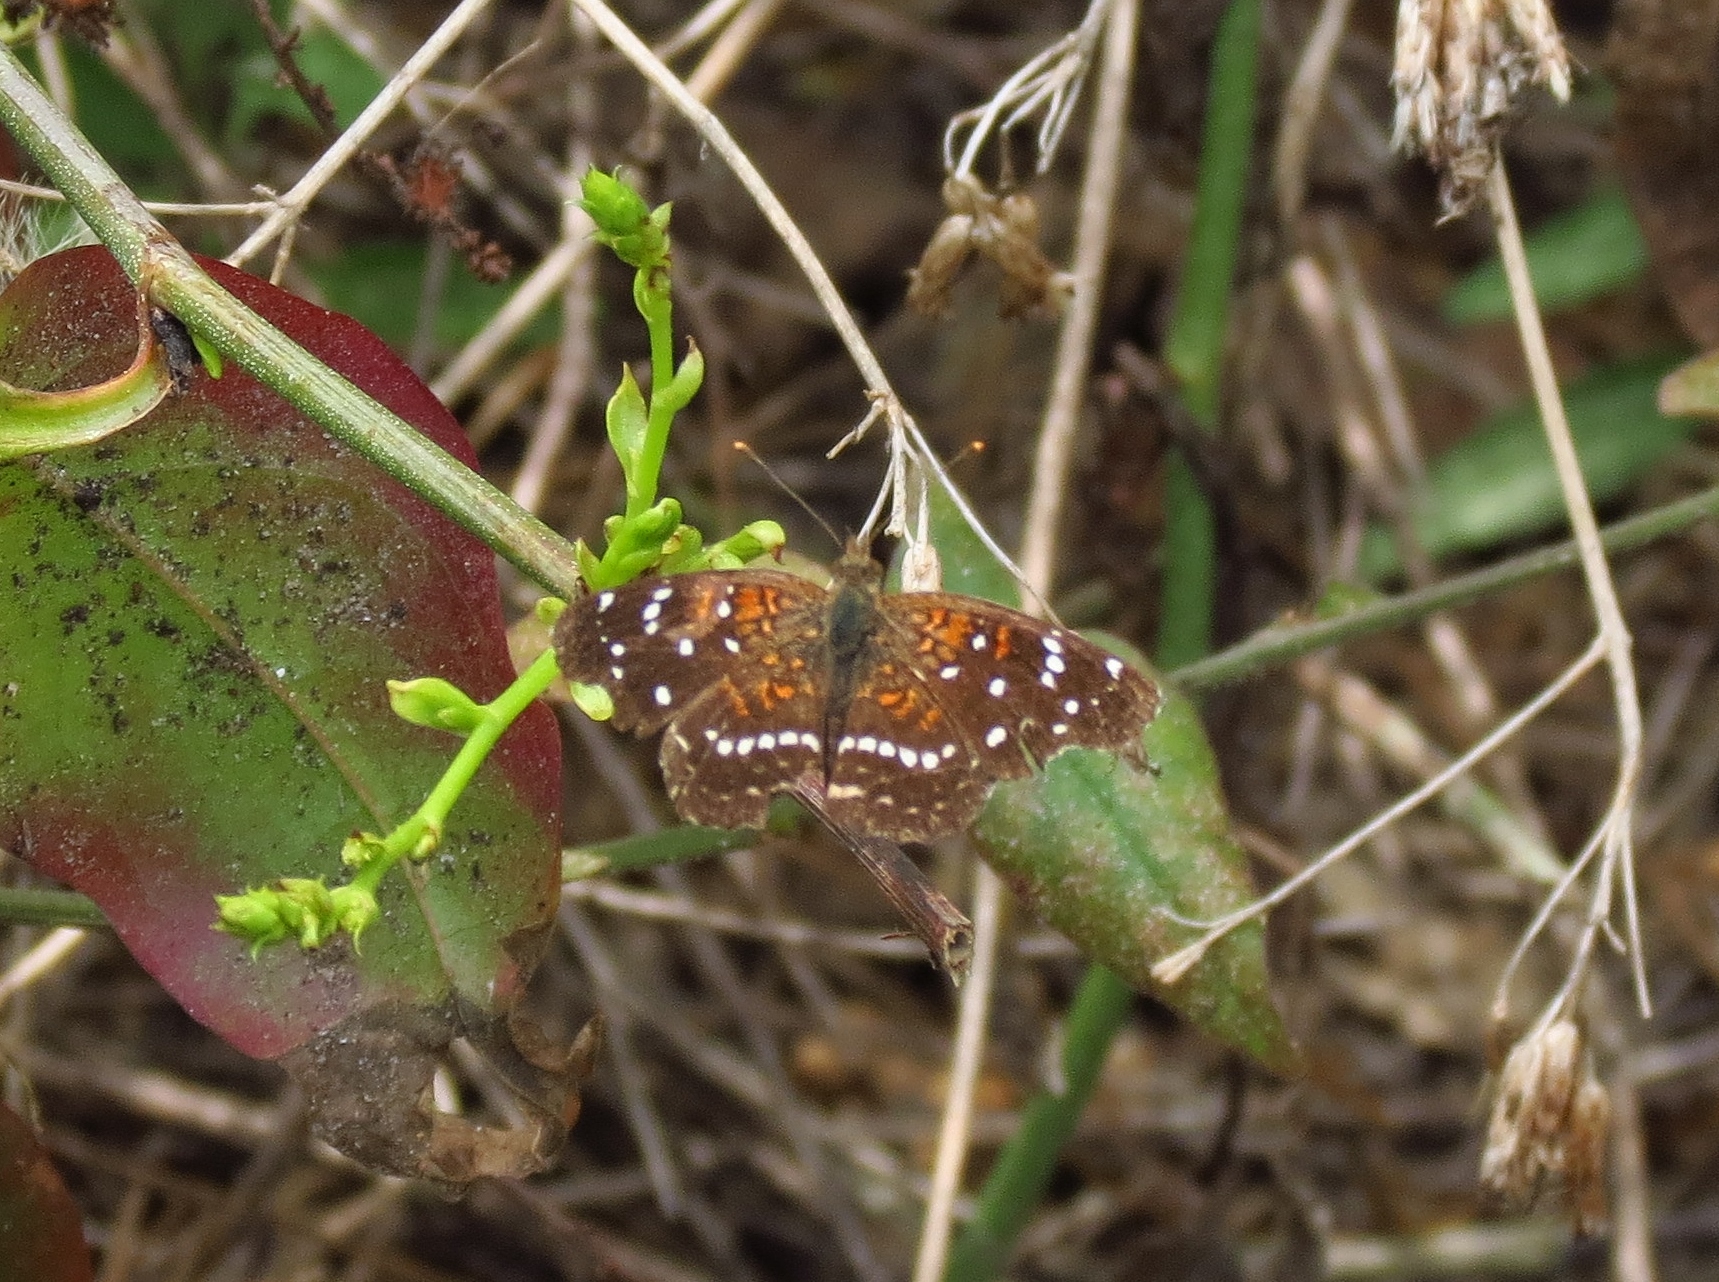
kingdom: Animalia
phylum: Arthropoda
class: Insecta
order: Lepidoptera
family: Nymphalidae
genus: Anthanassa
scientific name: Anthanassa texana
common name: Texan crescent
